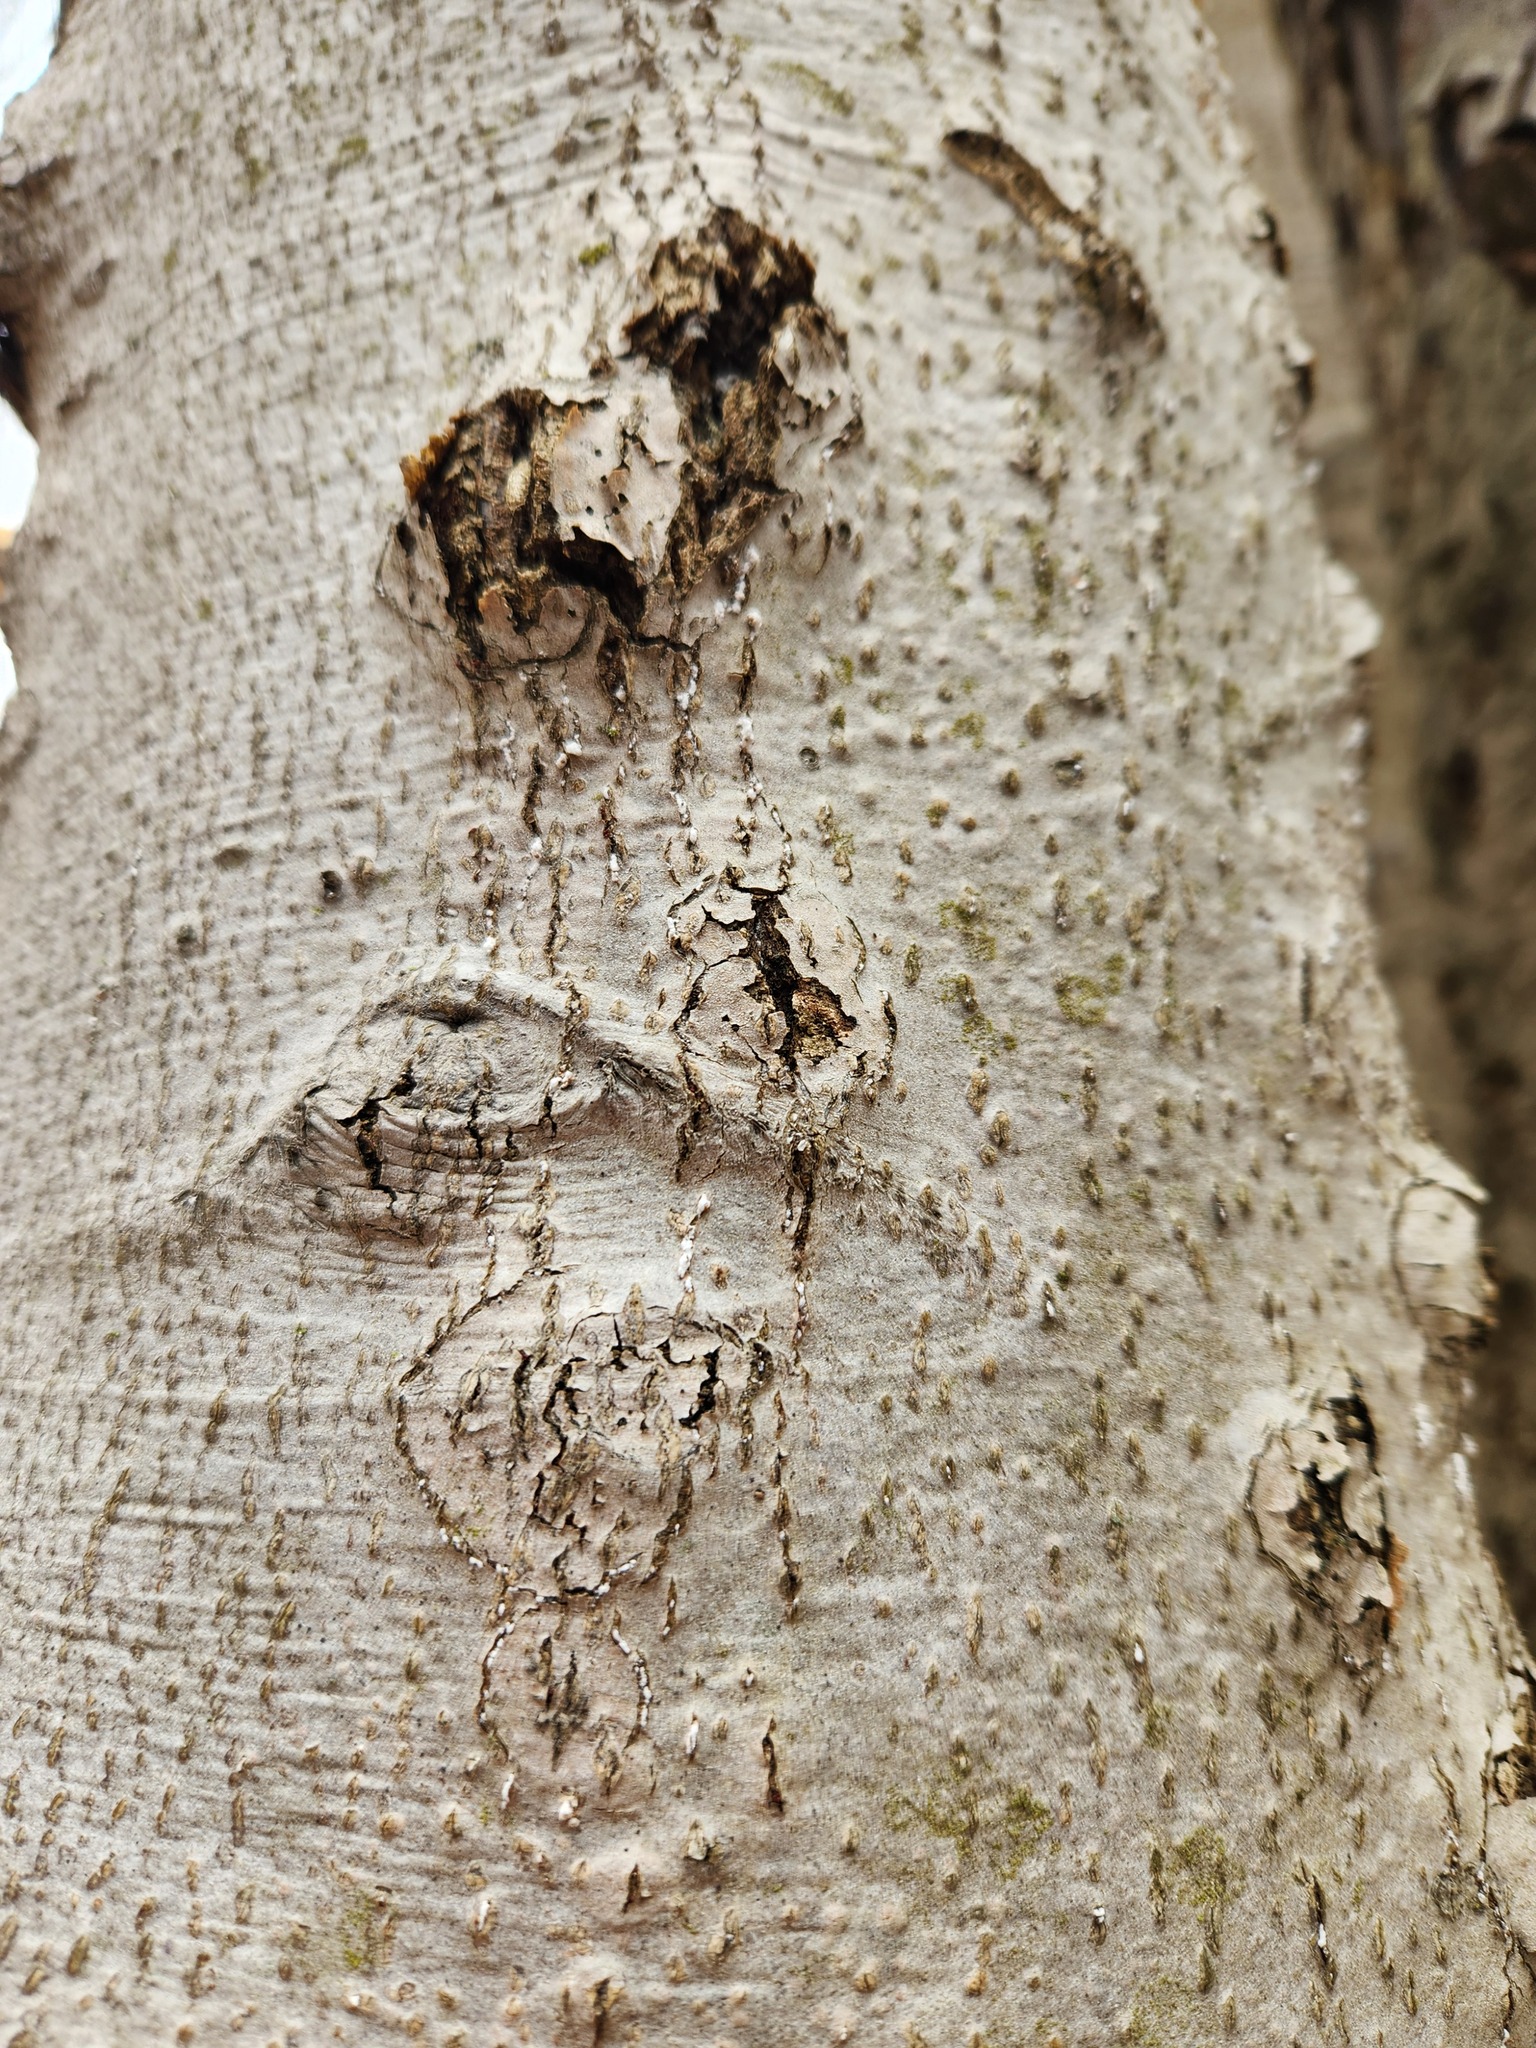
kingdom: Fungi
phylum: Ascomycota
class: Sordariomycetes
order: Hypocreales
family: Nectriaceae
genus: Neonectria
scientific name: Neonectria faginata
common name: Beech bark canker
